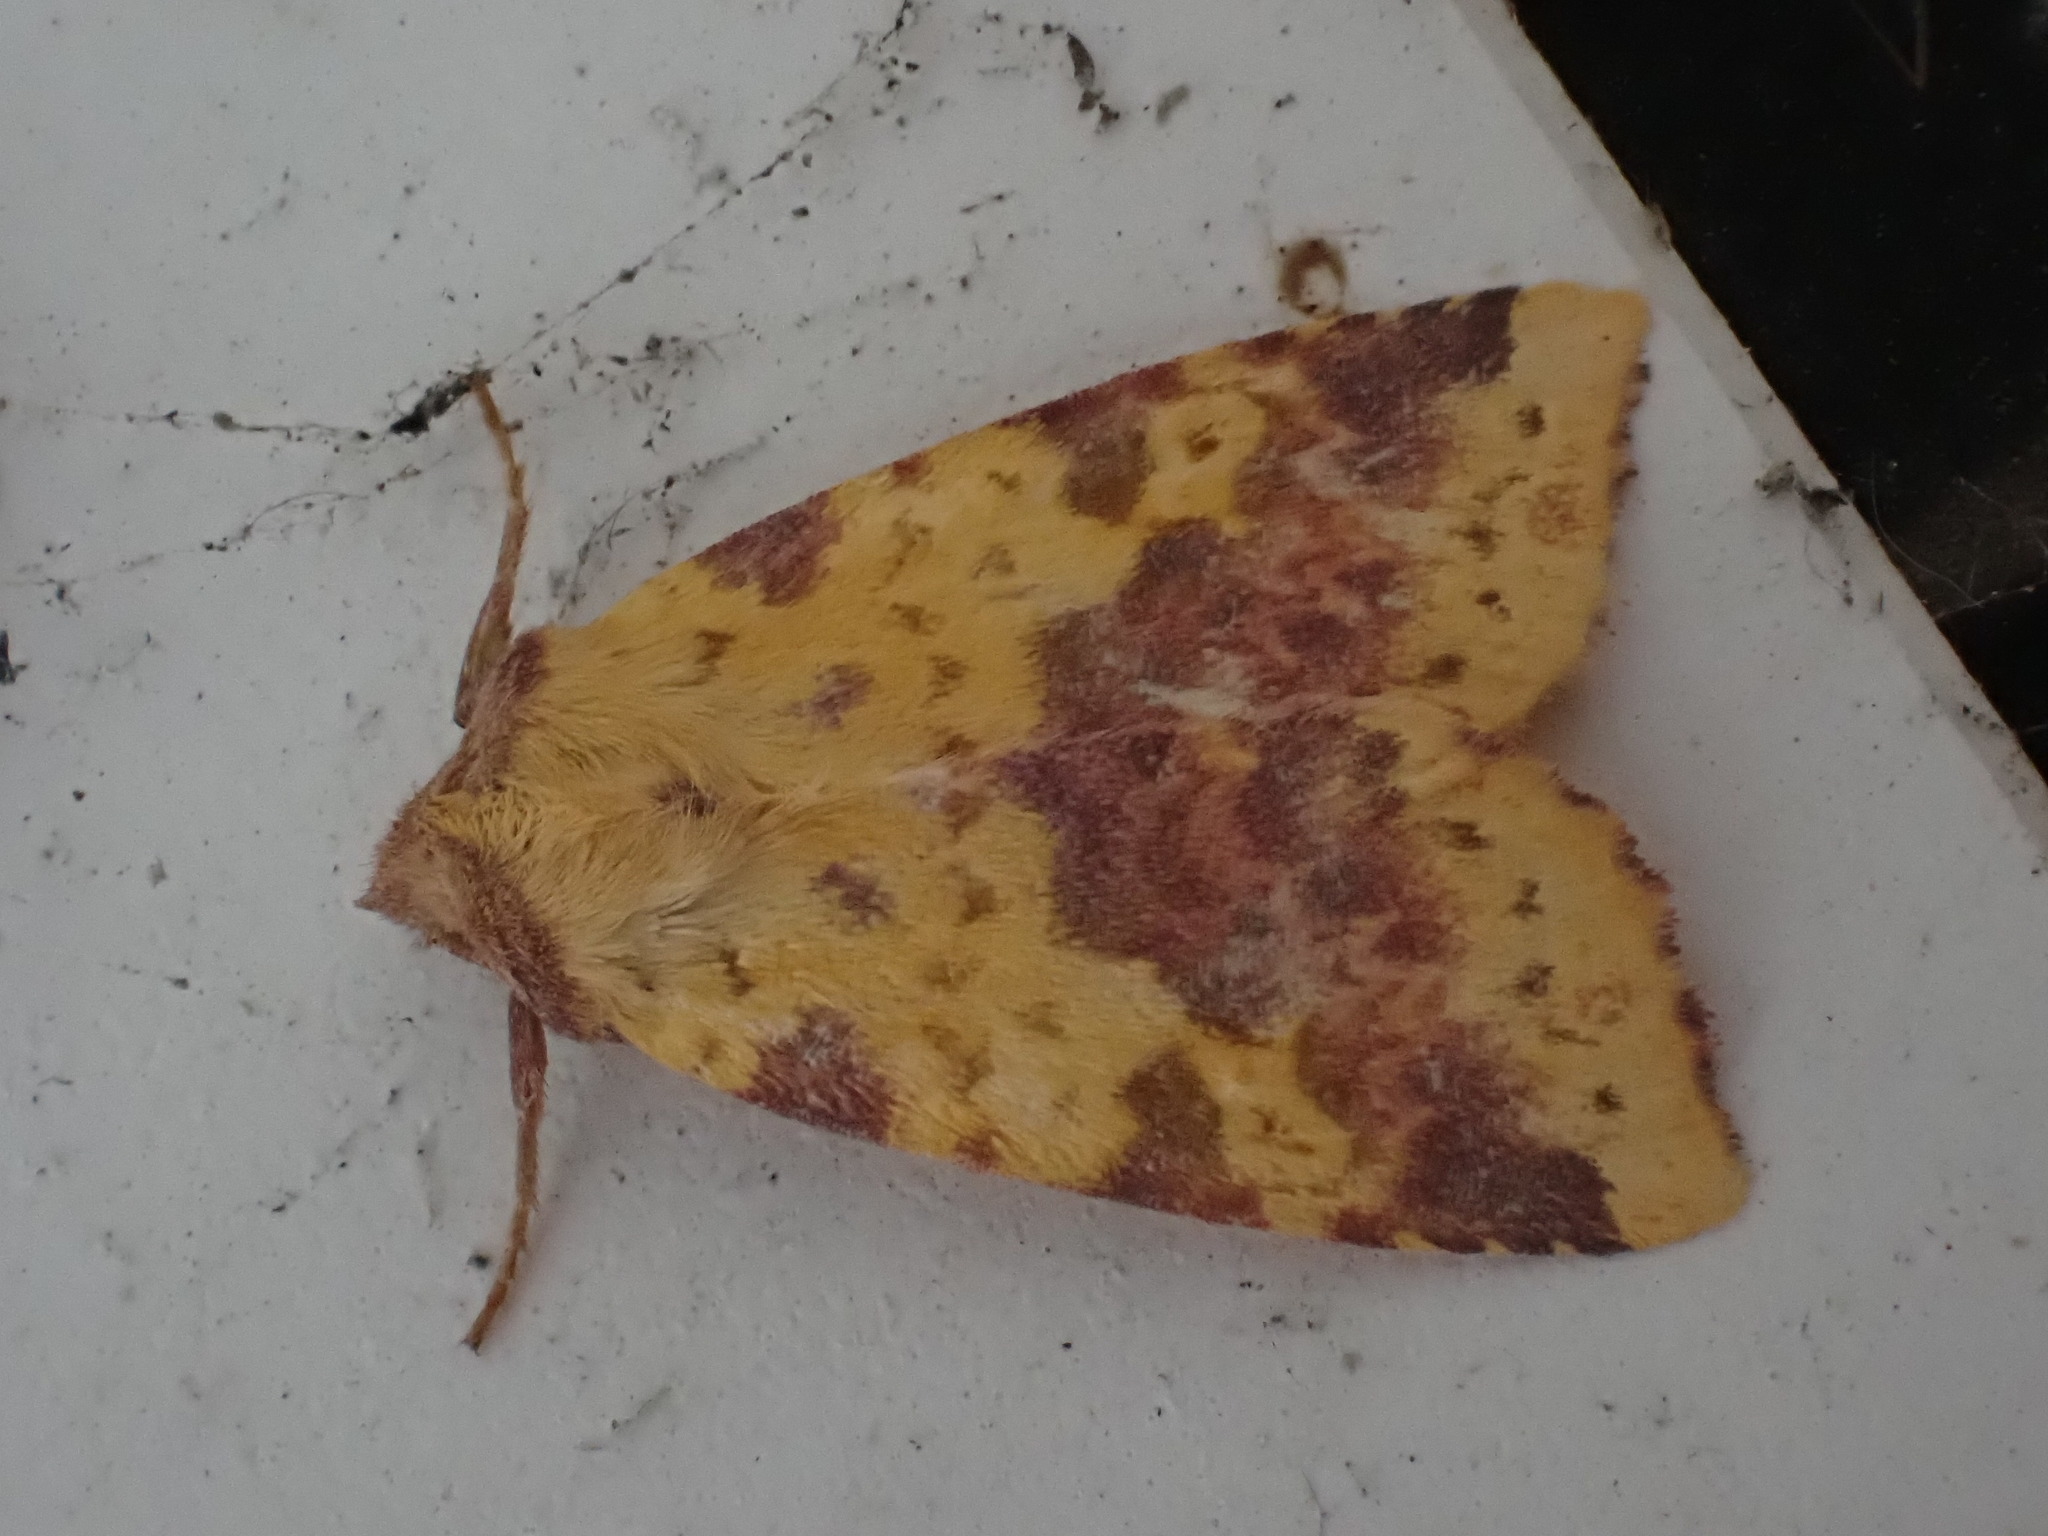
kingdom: Animalia
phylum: Arthropoda
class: Insecta
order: Lepidoptera
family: Noctuidae
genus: Xanthia
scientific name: Xanthia togata
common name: Pink-barred sallow
